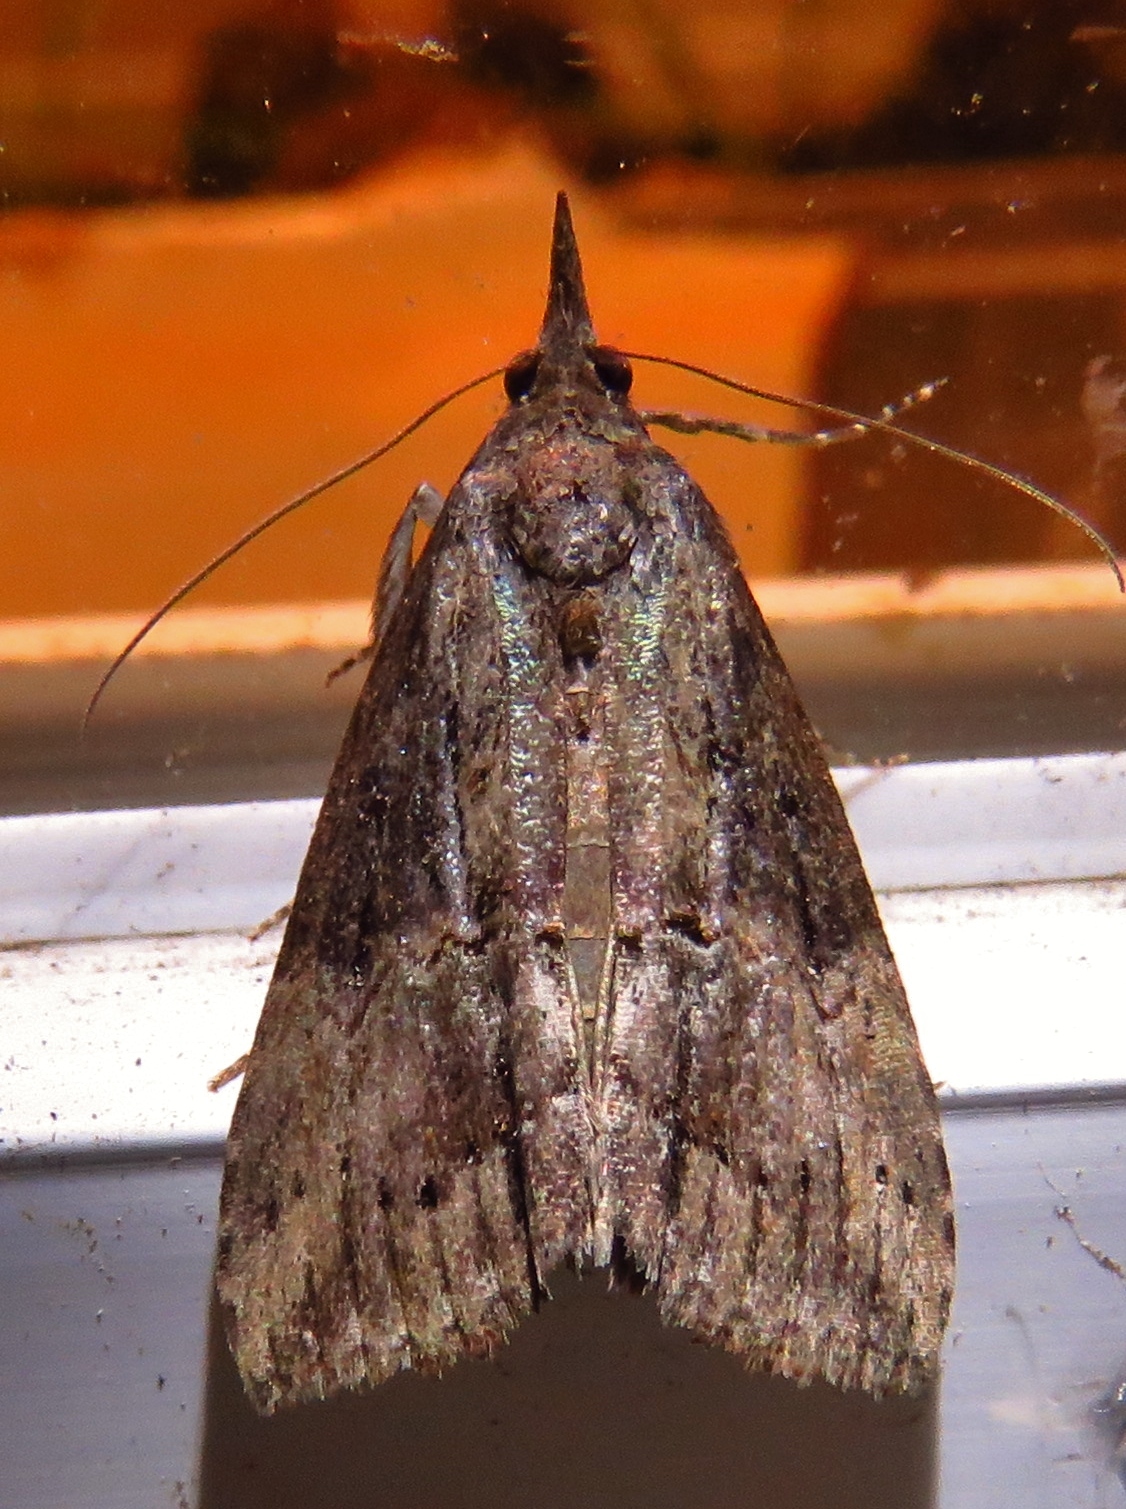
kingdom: Animalia
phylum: Arthropoda
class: Insecta
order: Lepidoptera
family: Erebidae
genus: Hypena
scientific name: Hypena scabra
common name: Green cloverworm
